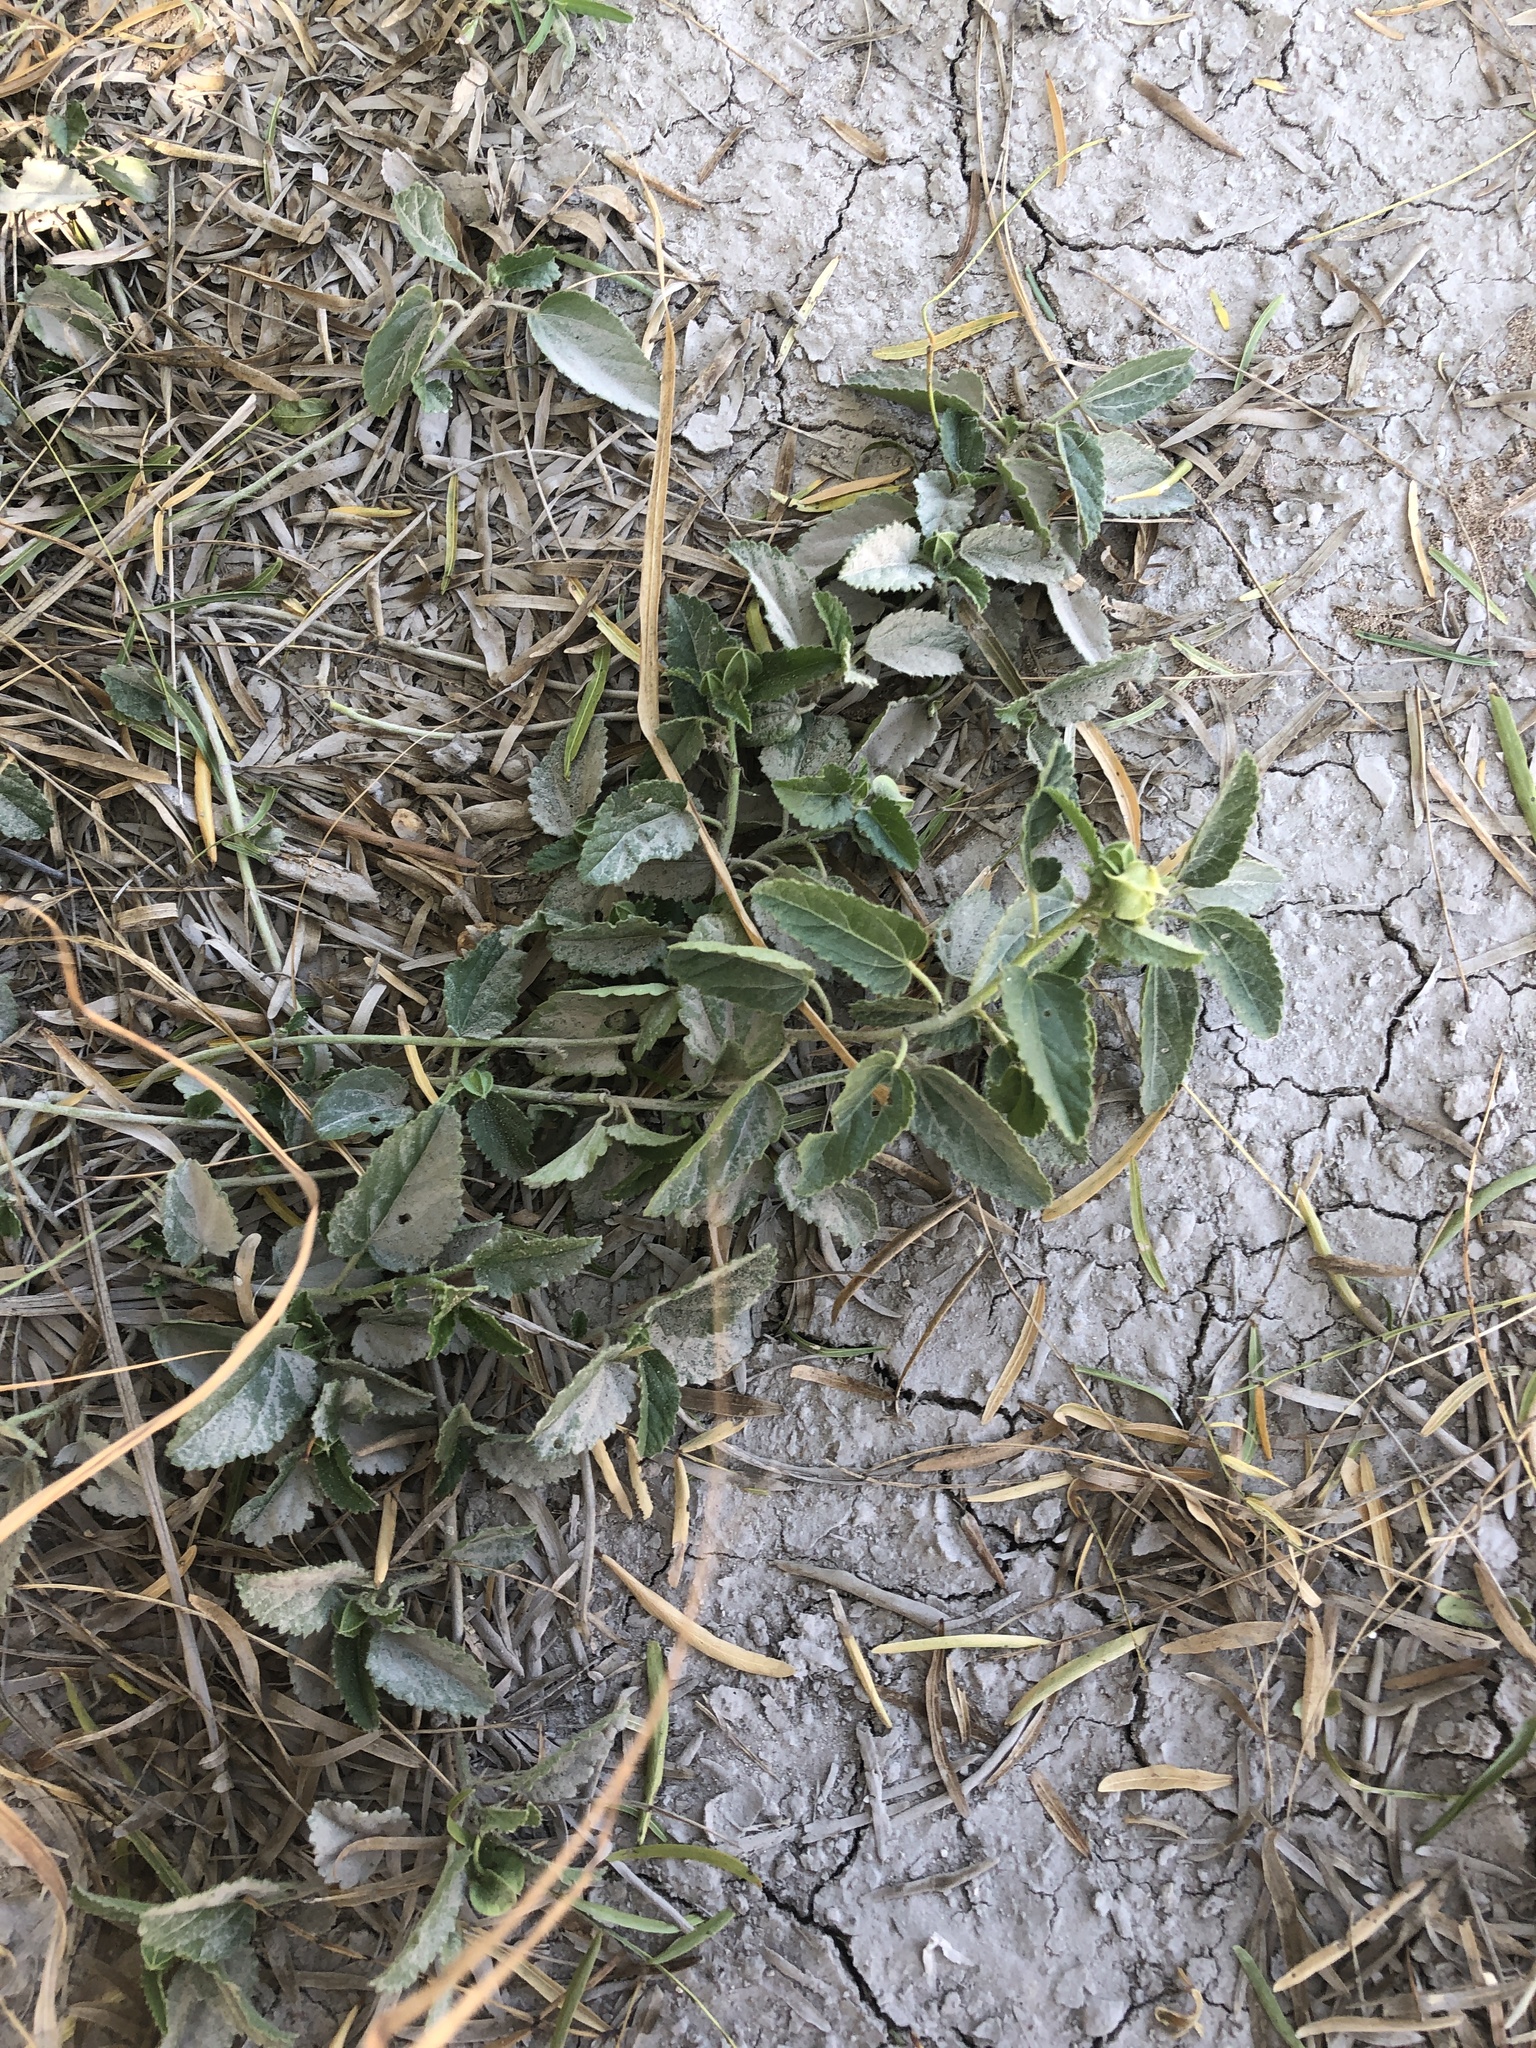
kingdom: Plantae
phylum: Tracheophyta
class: Magnoliopsida
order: Malvales
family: Malvaceae
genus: Rhynchosida
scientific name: Rhynchosida physocalyx
